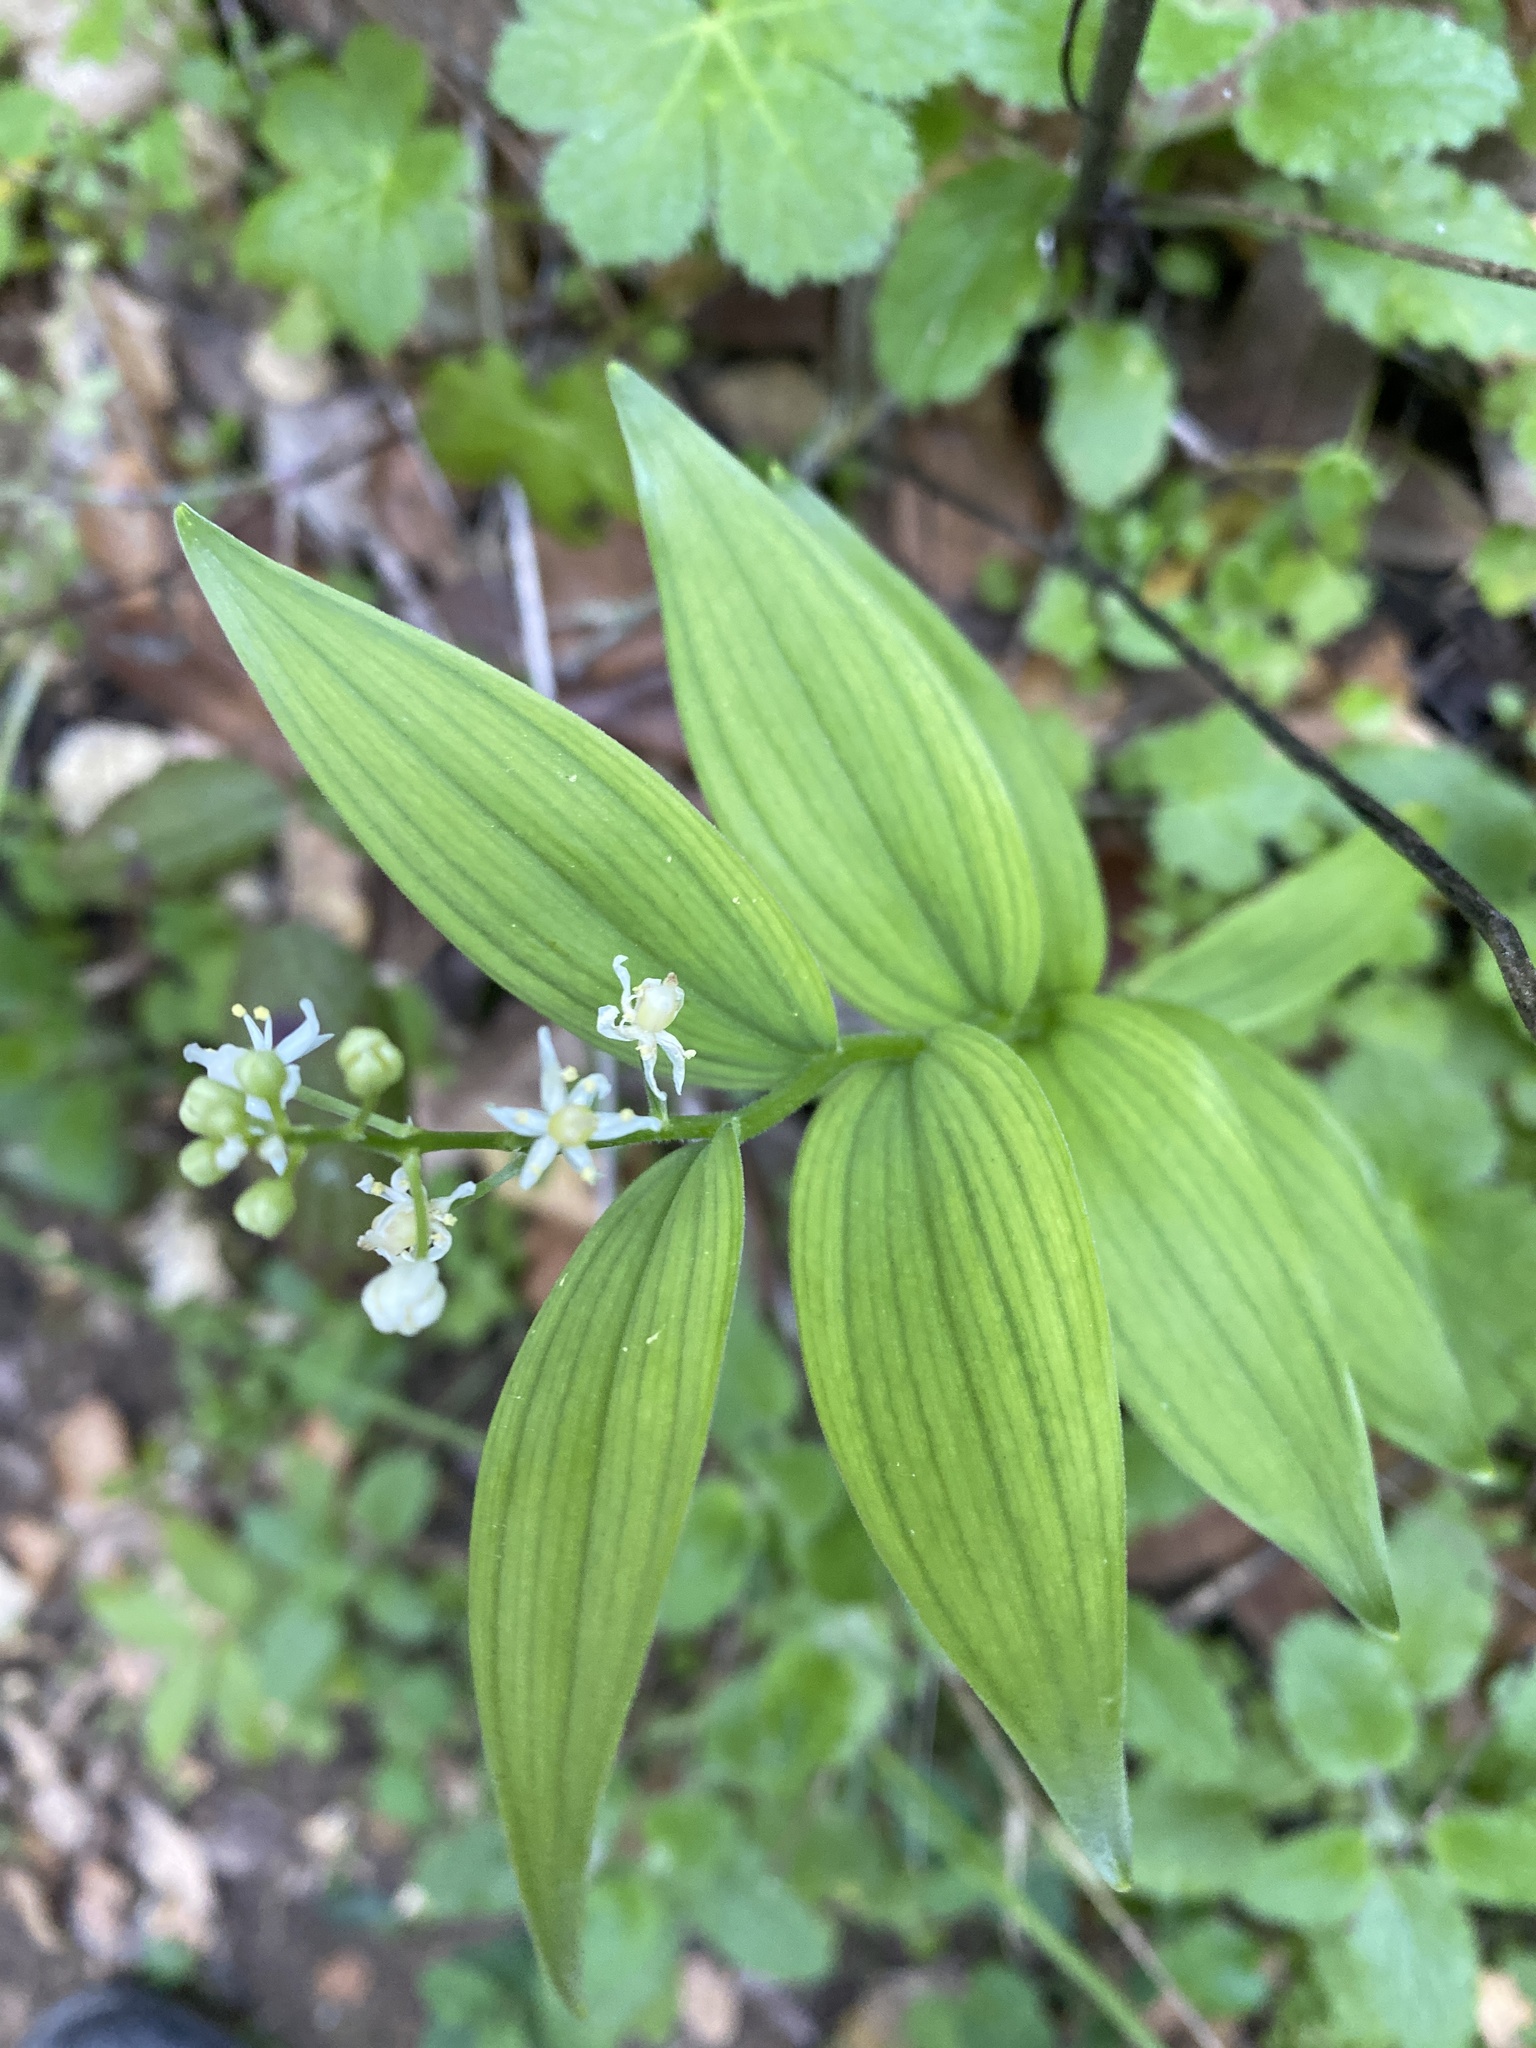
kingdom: Plantae
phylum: Tracheophyta
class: Liliopsida
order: Asparagales
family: Asparagaceae
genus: Maianthemum
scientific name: Maianthemum stellatum
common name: Little false solomon's seal
